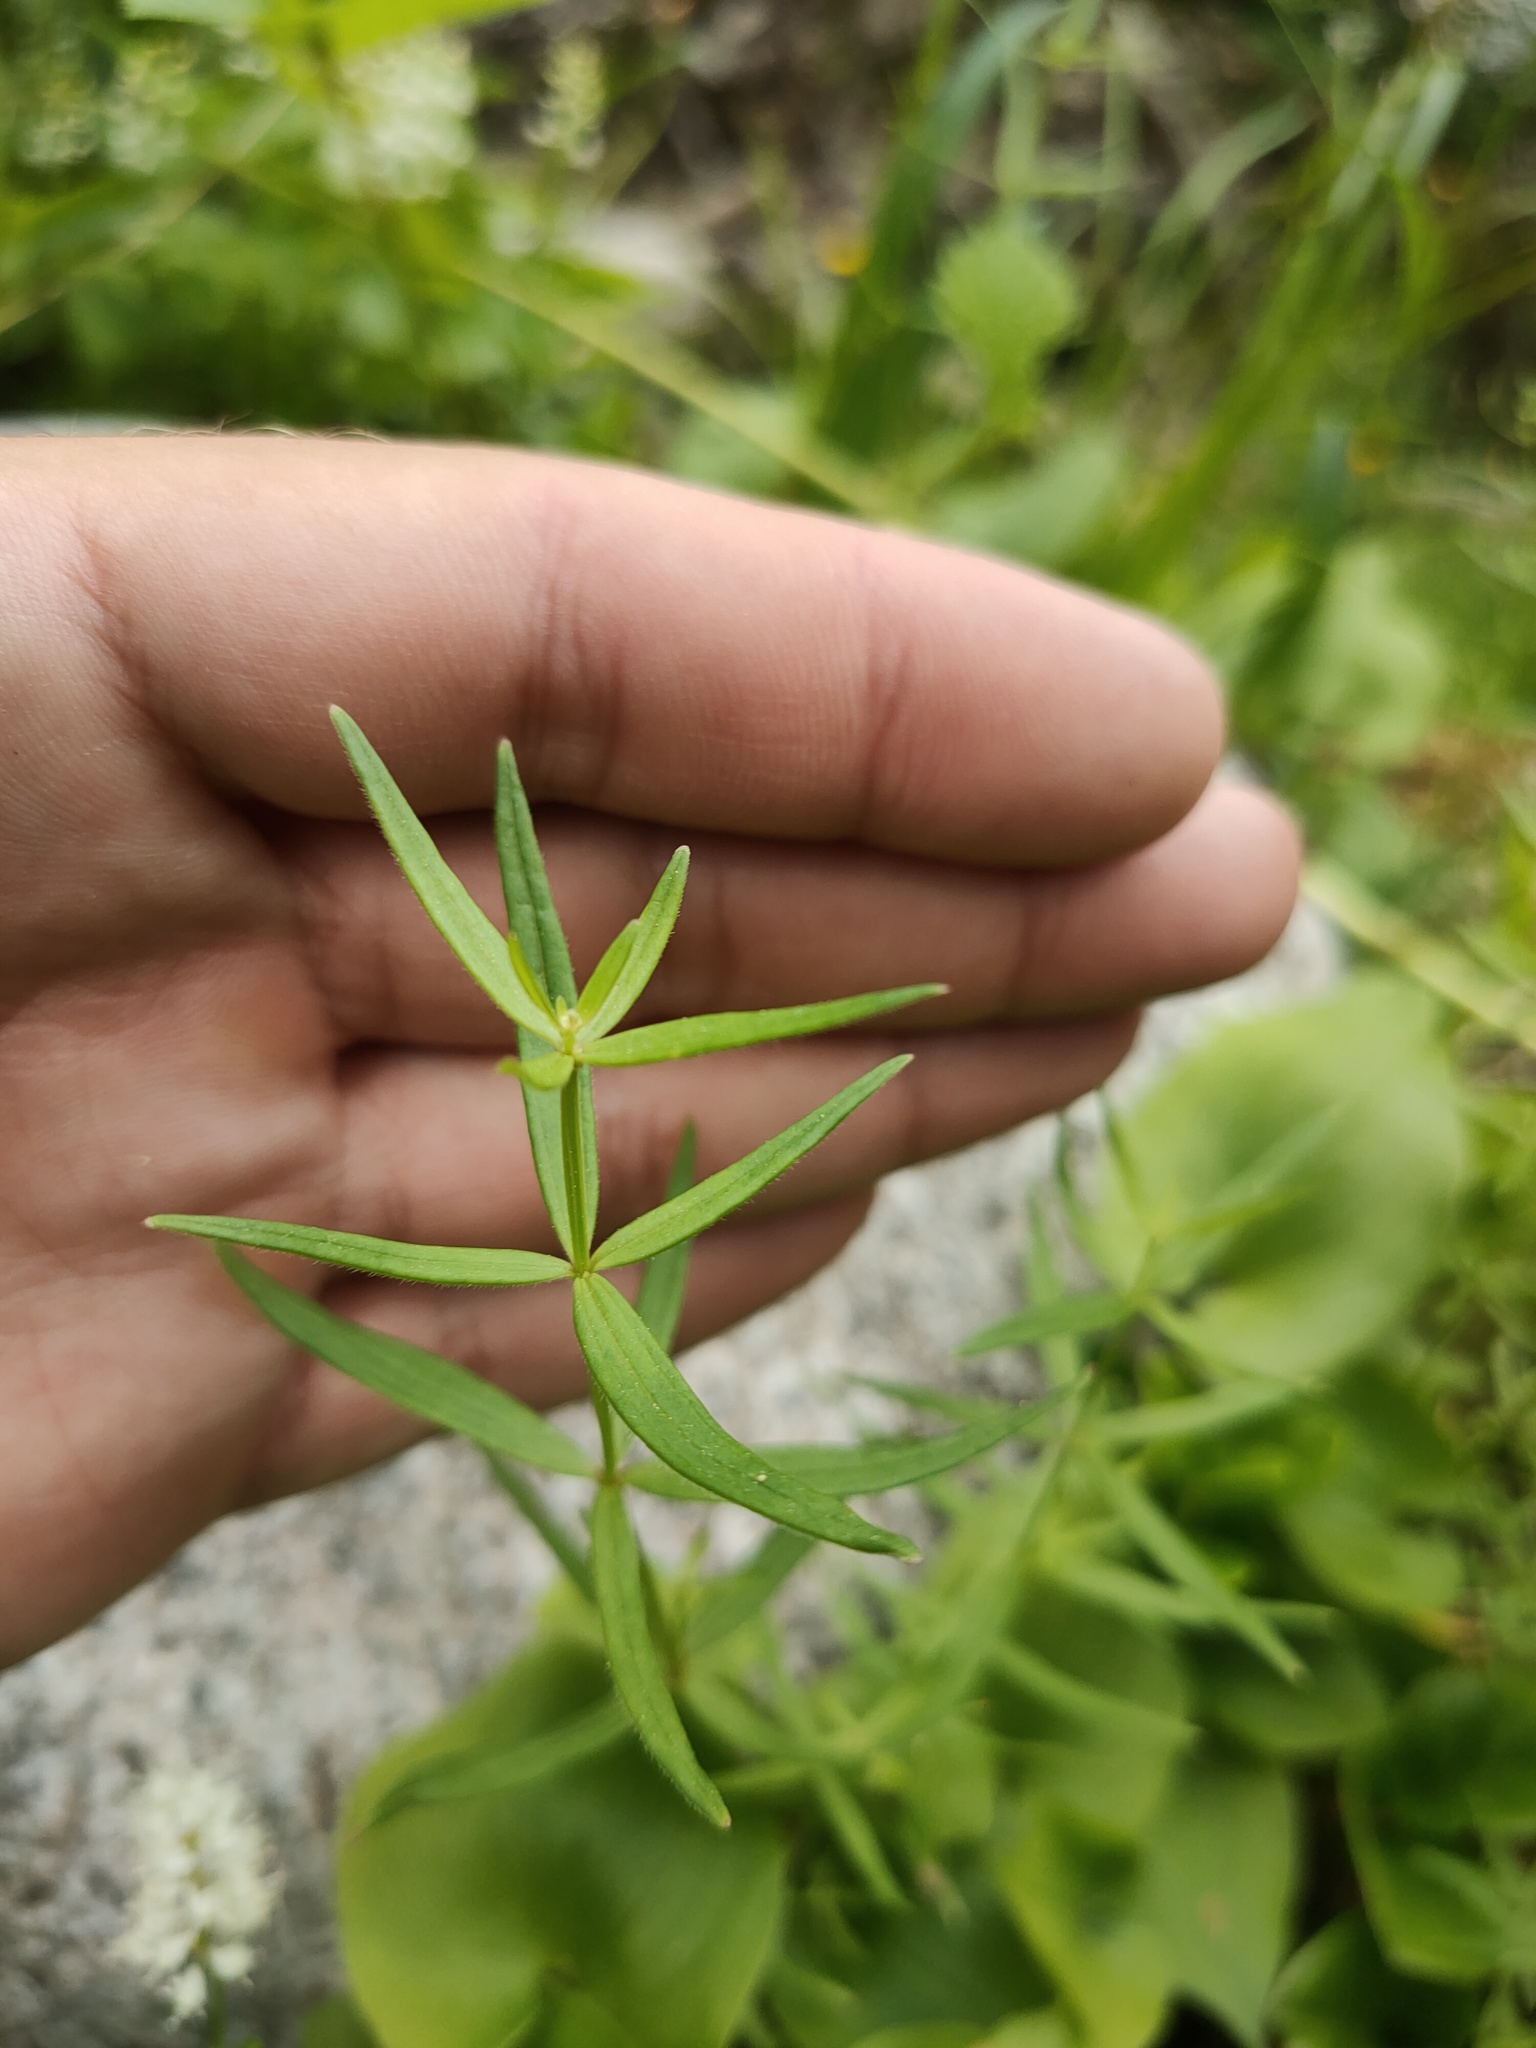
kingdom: Plantae
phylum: Tracheophyta
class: Magnoliopsida
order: Gentianales
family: Rubiaceae
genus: Galium
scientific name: Galium boreale
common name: Northern bedstraw
